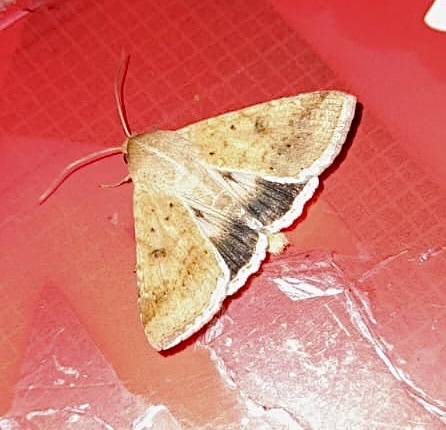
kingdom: Animalia
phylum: Arthropoda
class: Insecta
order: Lepidoptera
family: Noctuidae
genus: Helicoverpa
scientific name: Helicoverpa armigera
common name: Cotton bollworm
